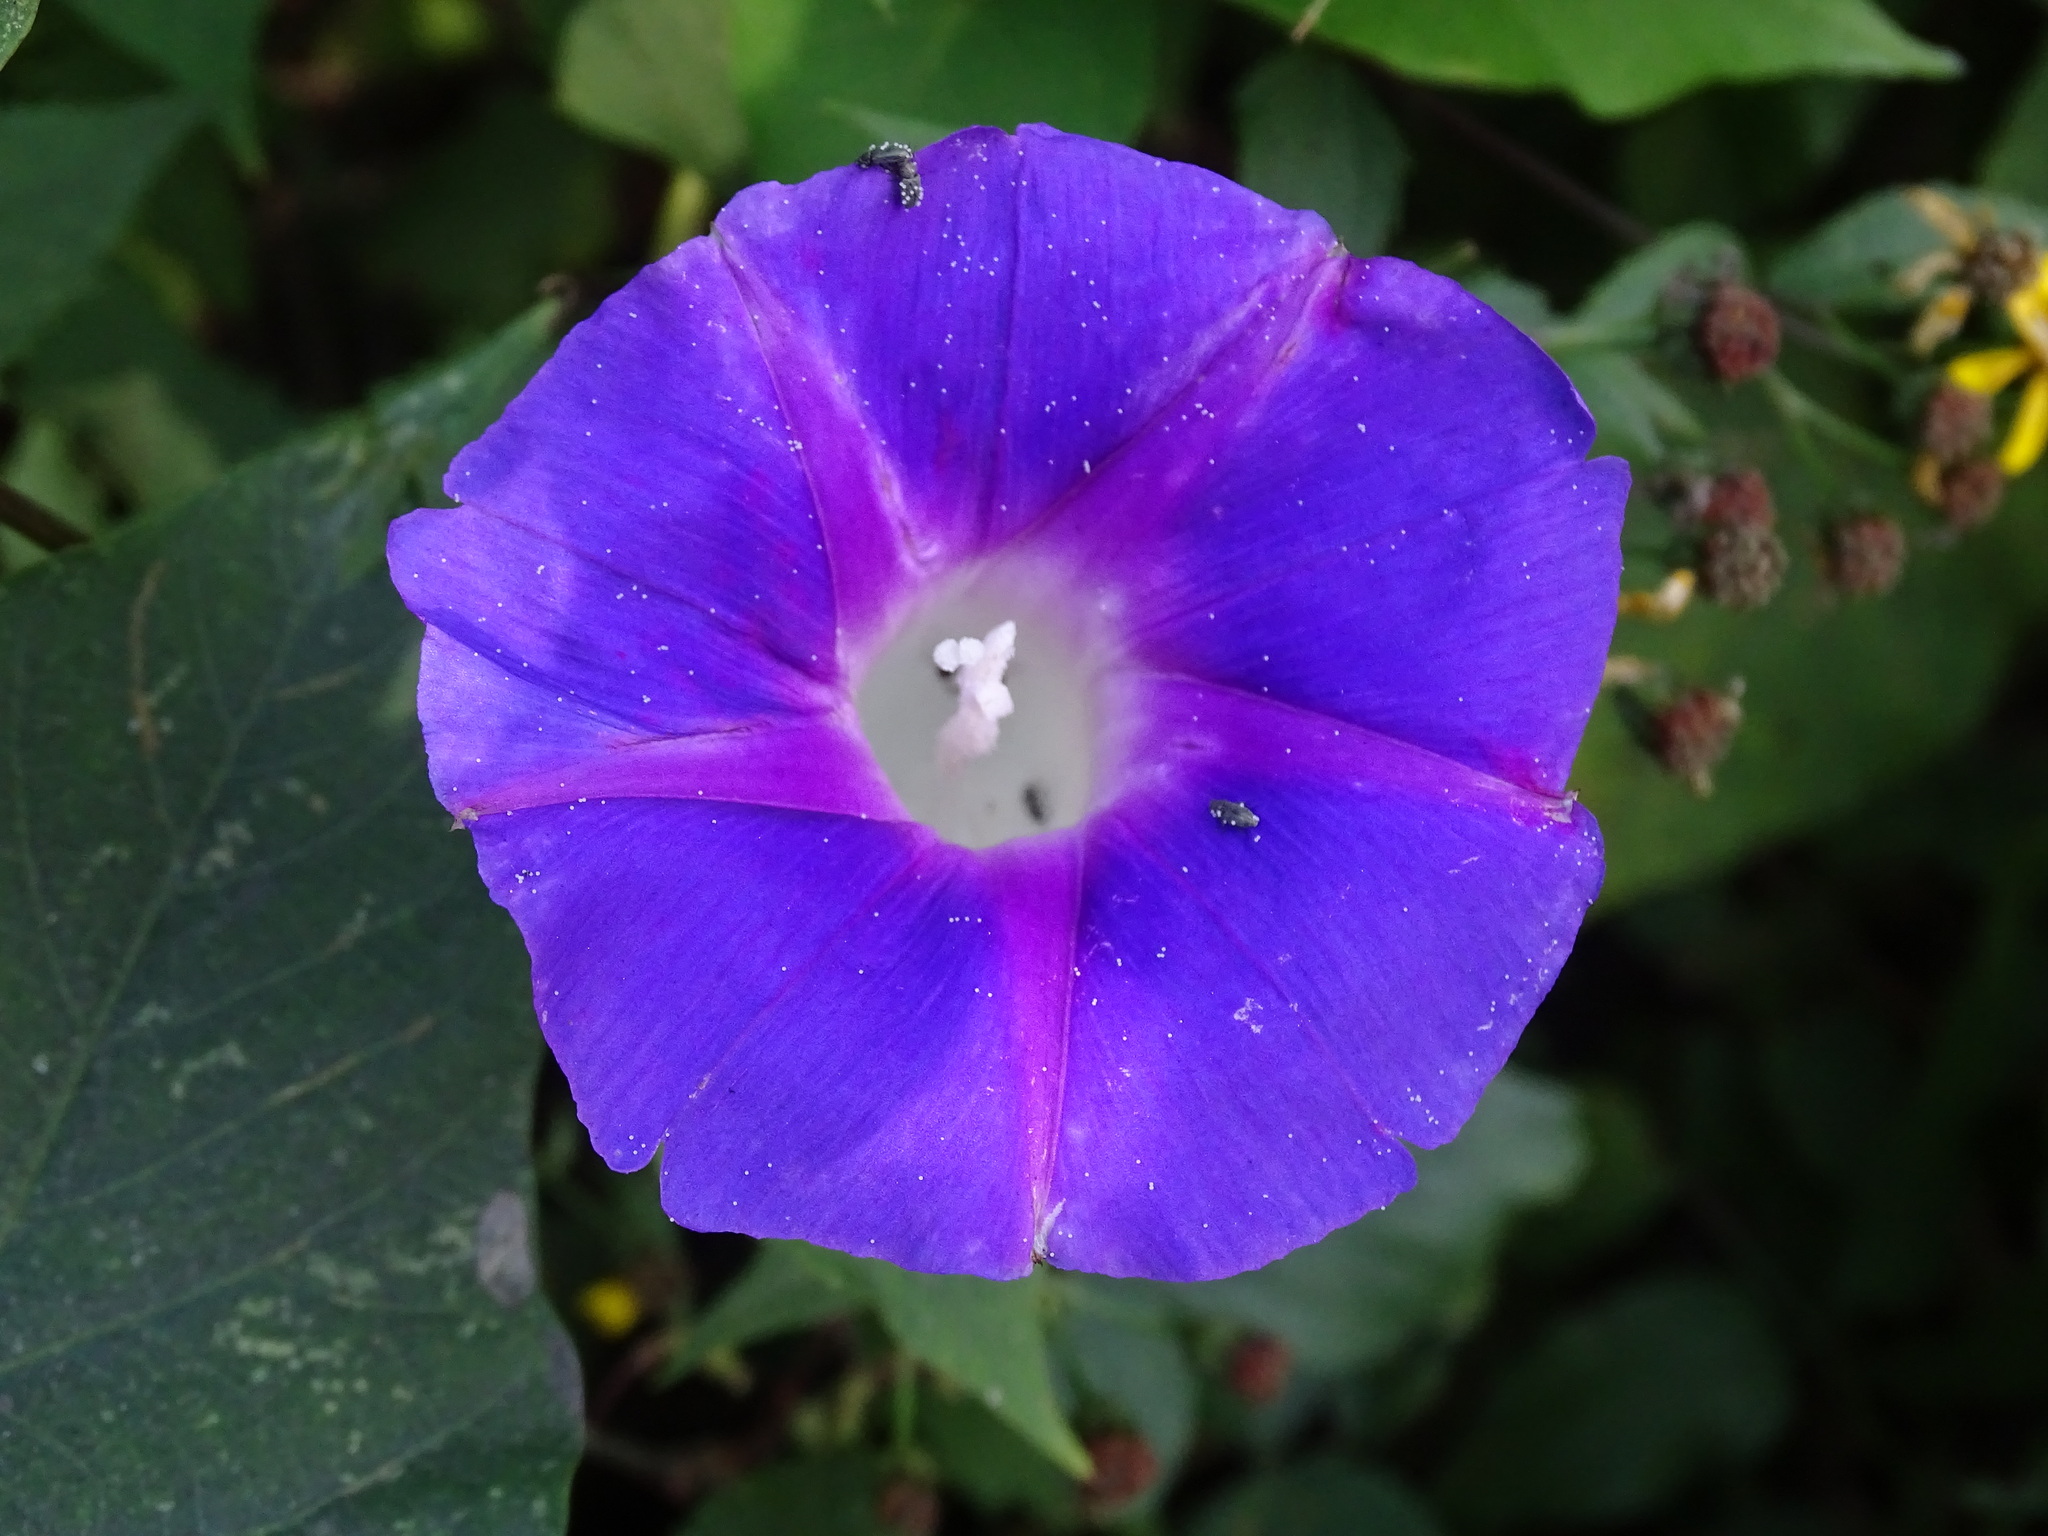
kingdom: Plantae
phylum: Tracheophyta
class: Magnoliopsida
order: Solanales
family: Convolvulaceae
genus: Ipomoea
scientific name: Ipomoea orizabensis
